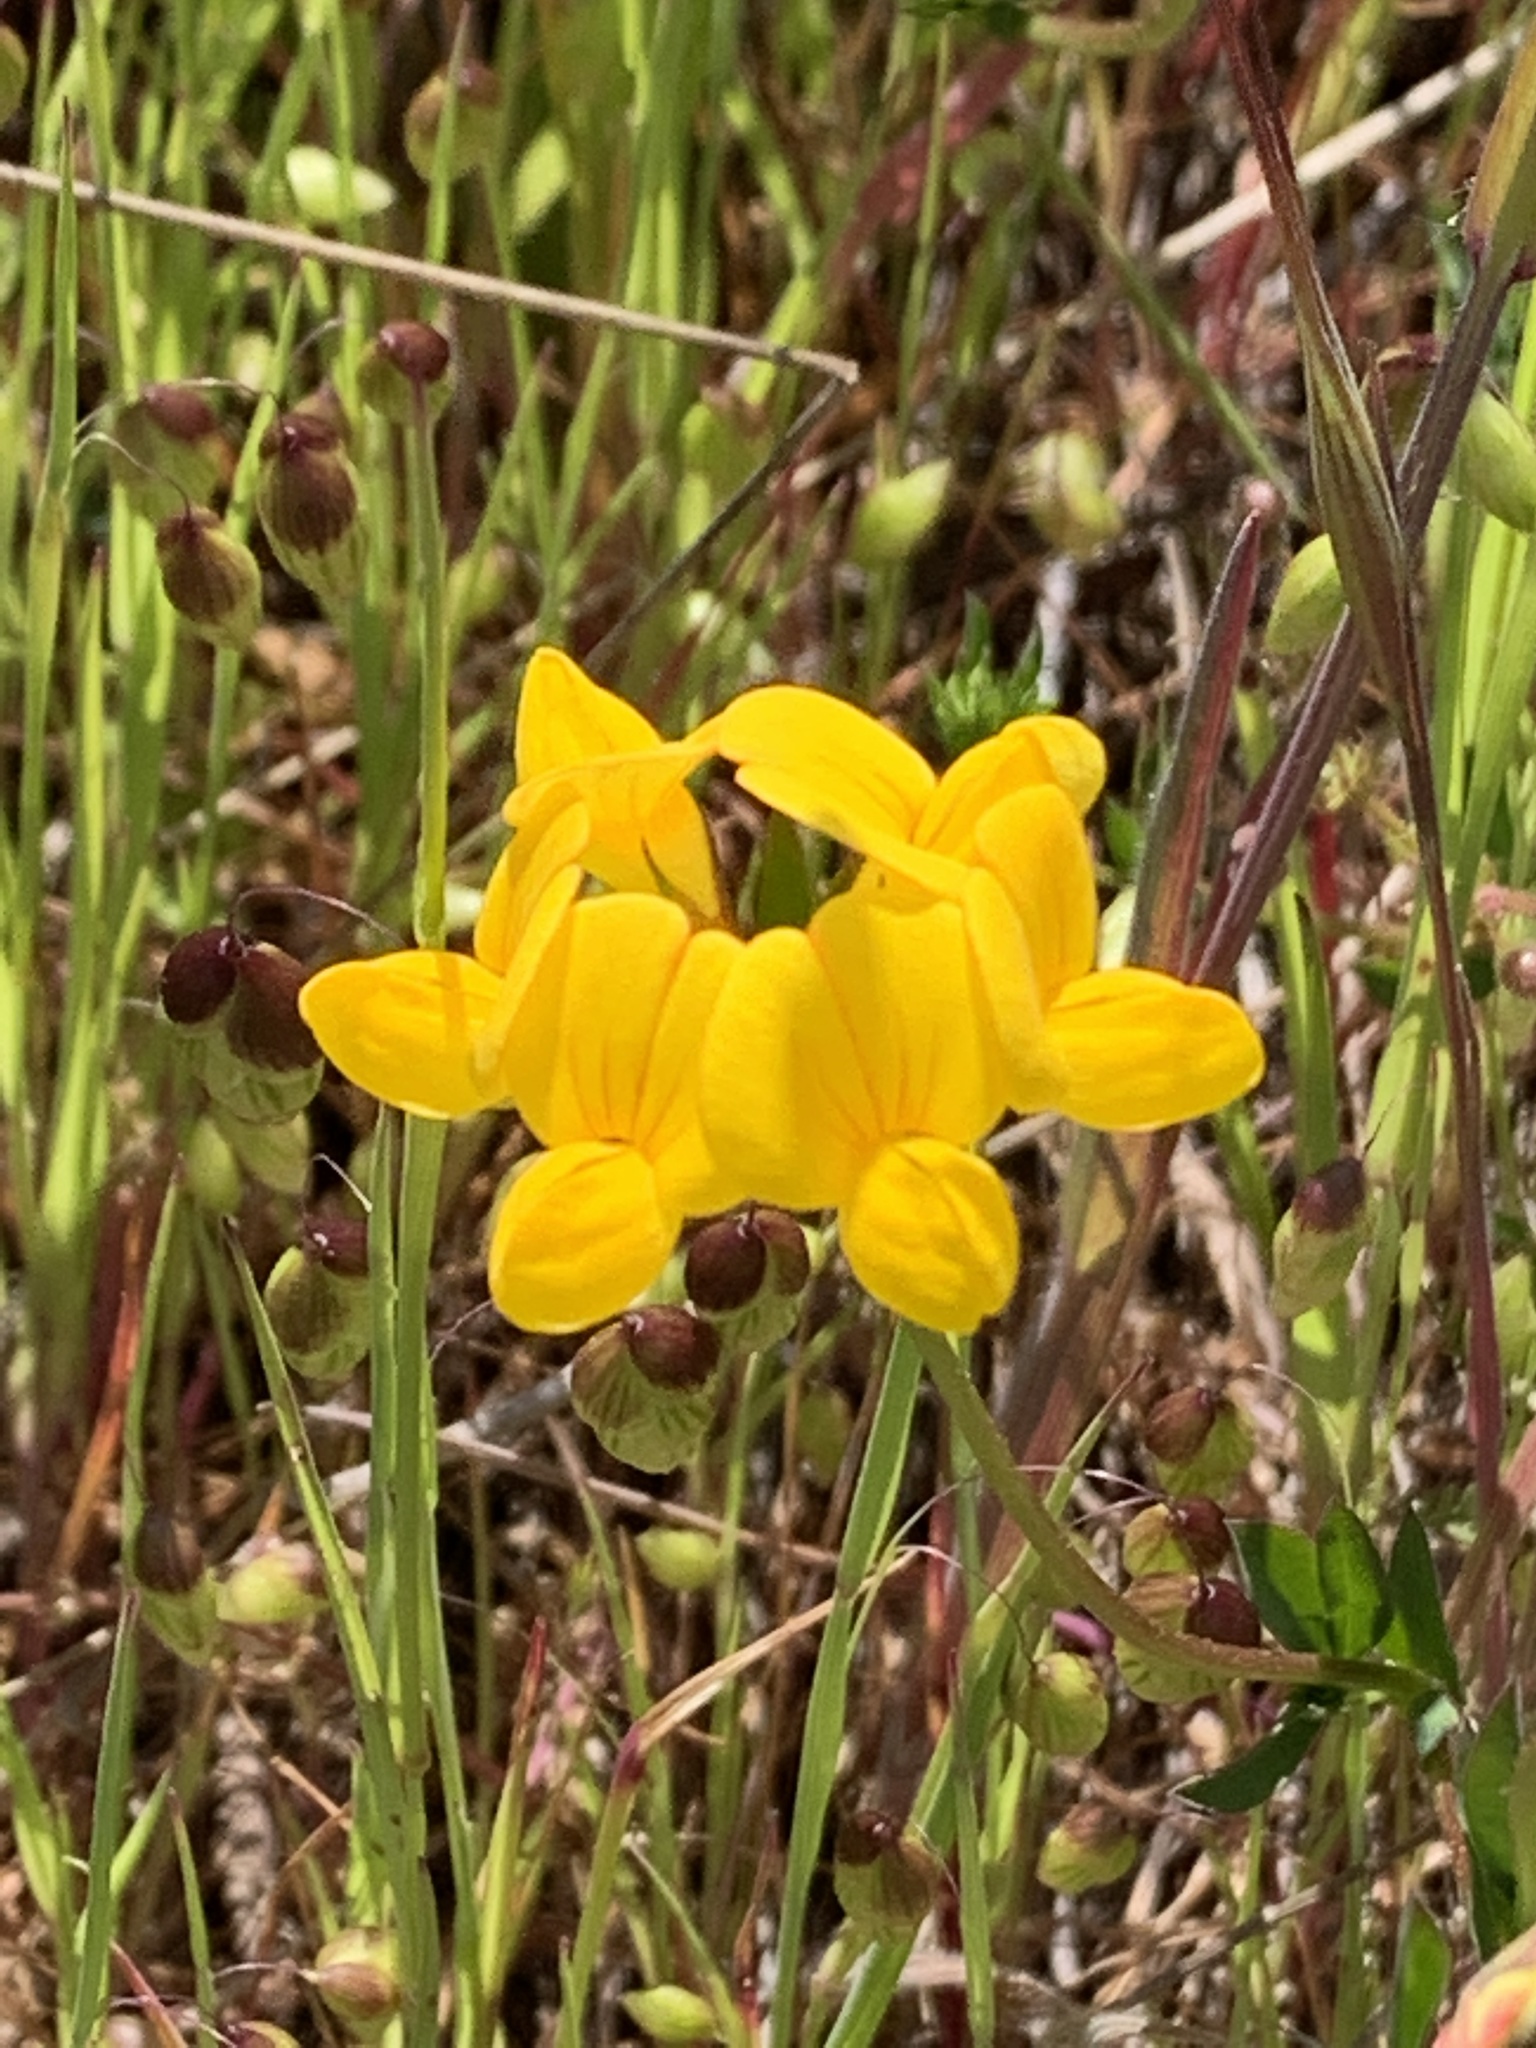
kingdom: Plantae
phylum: Tracheophyta
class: Magnoliopsida
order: Fabales
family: Fabaceae
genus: Lotus
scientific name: Lotus corniculatus
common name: Common bird's-foot-trefoil
